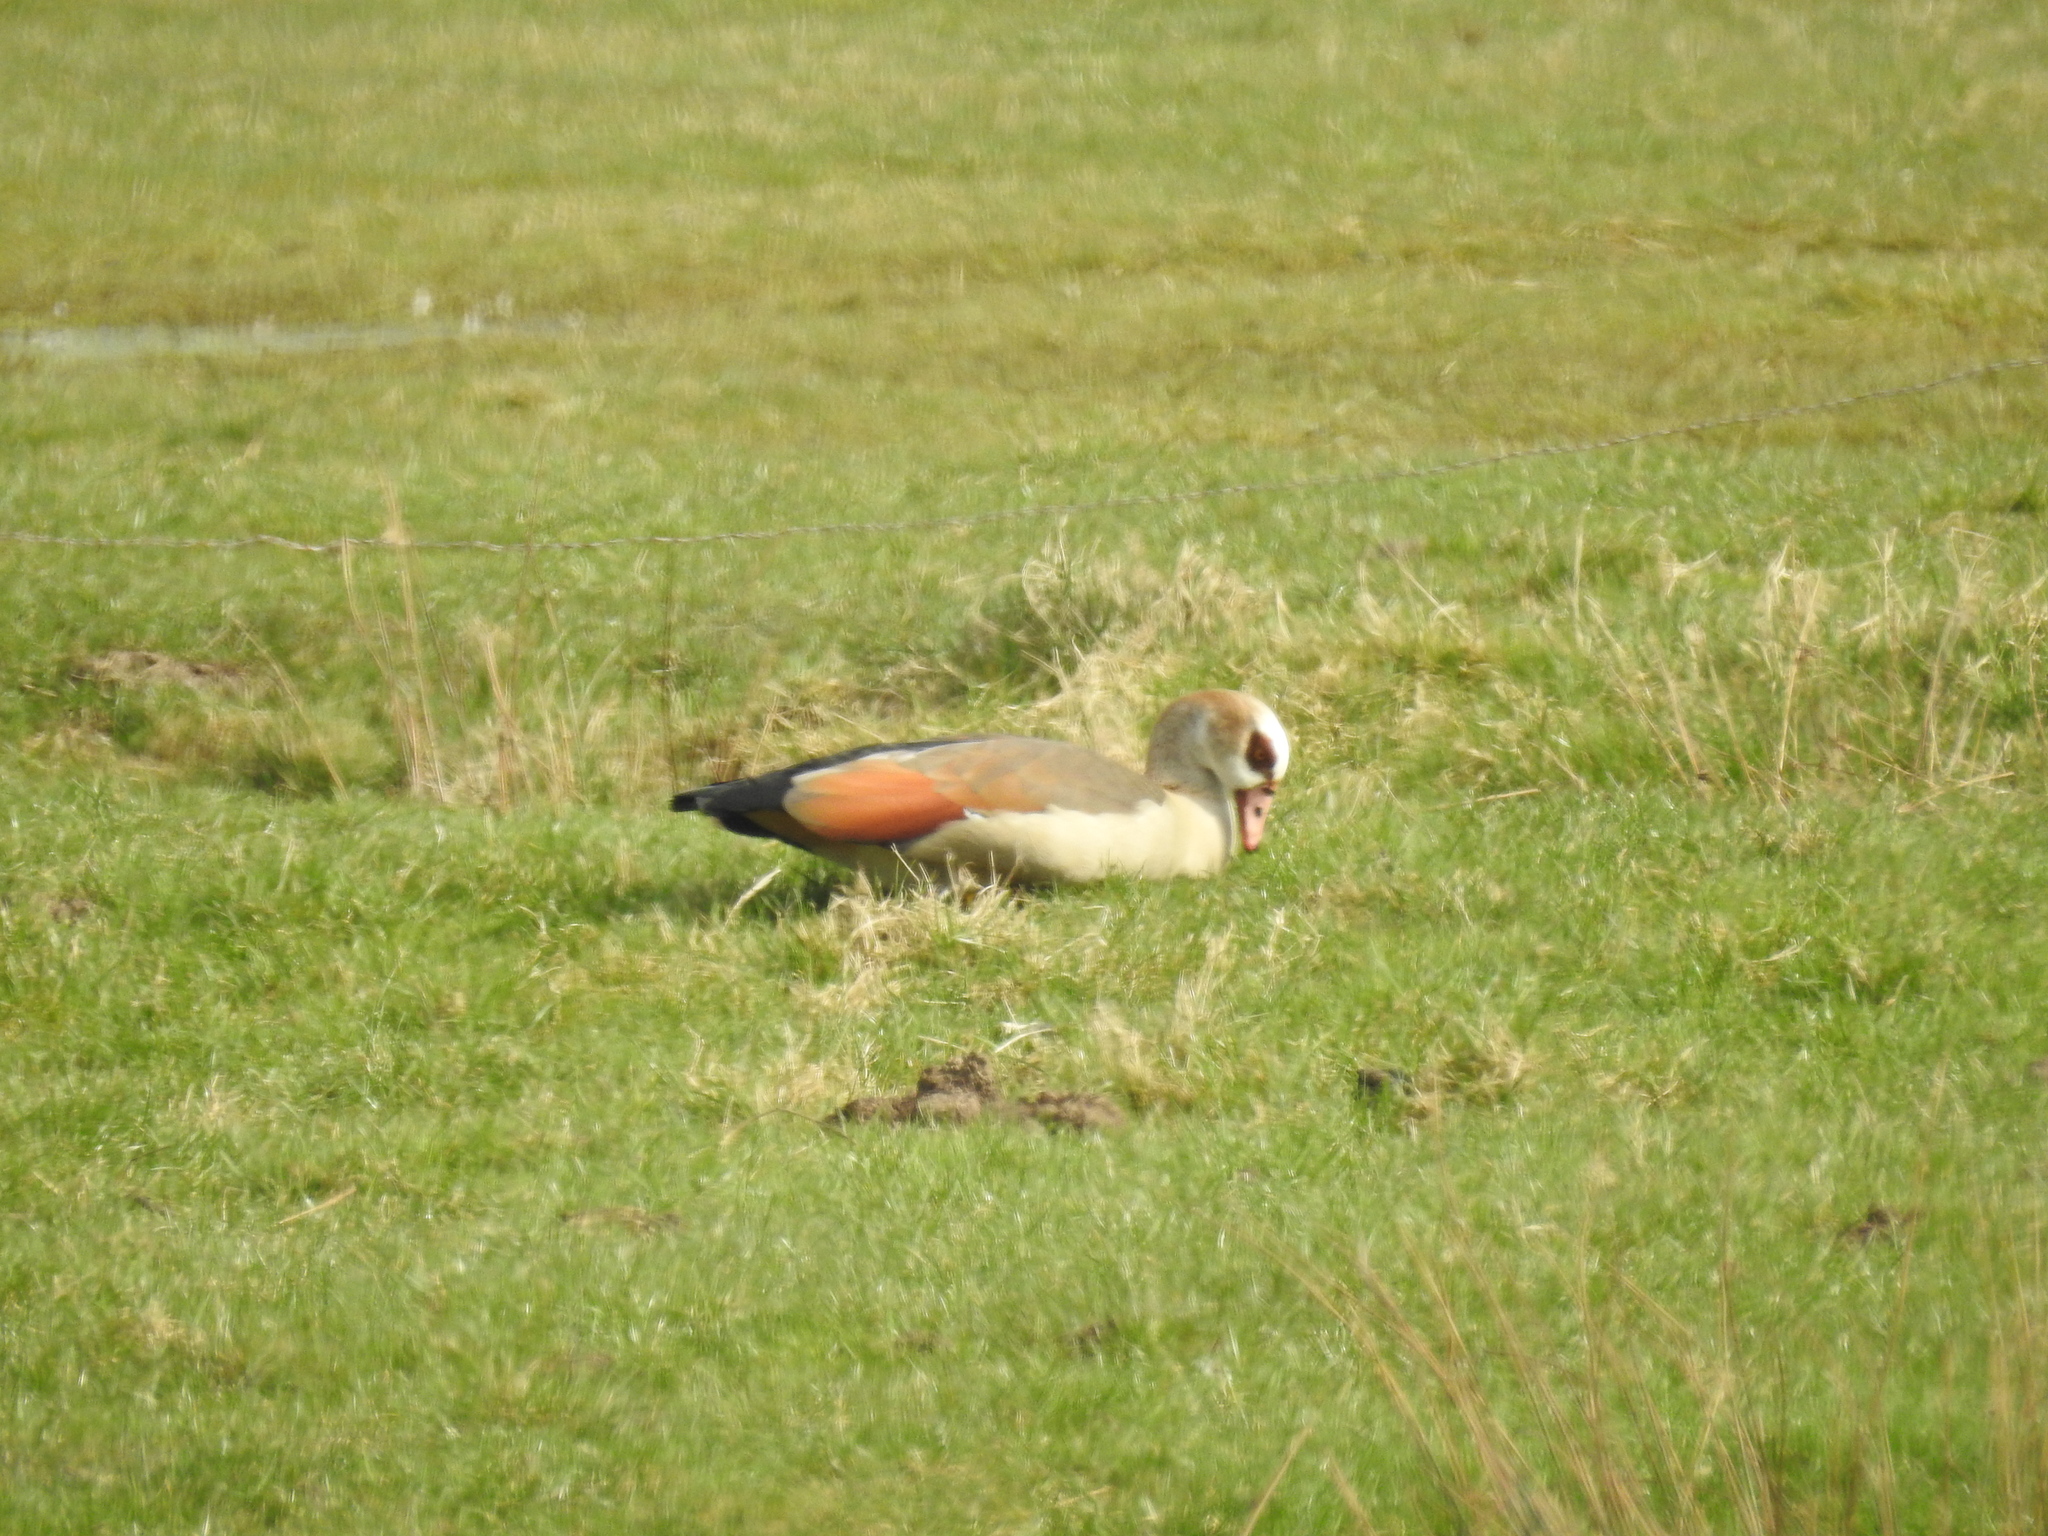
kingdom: Animalia
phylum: Chordata
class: Aves
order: Anseriformes
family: Anatidae
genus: Alopochen
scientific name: Alopochen aegyptiaca
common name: Egyptian goose
